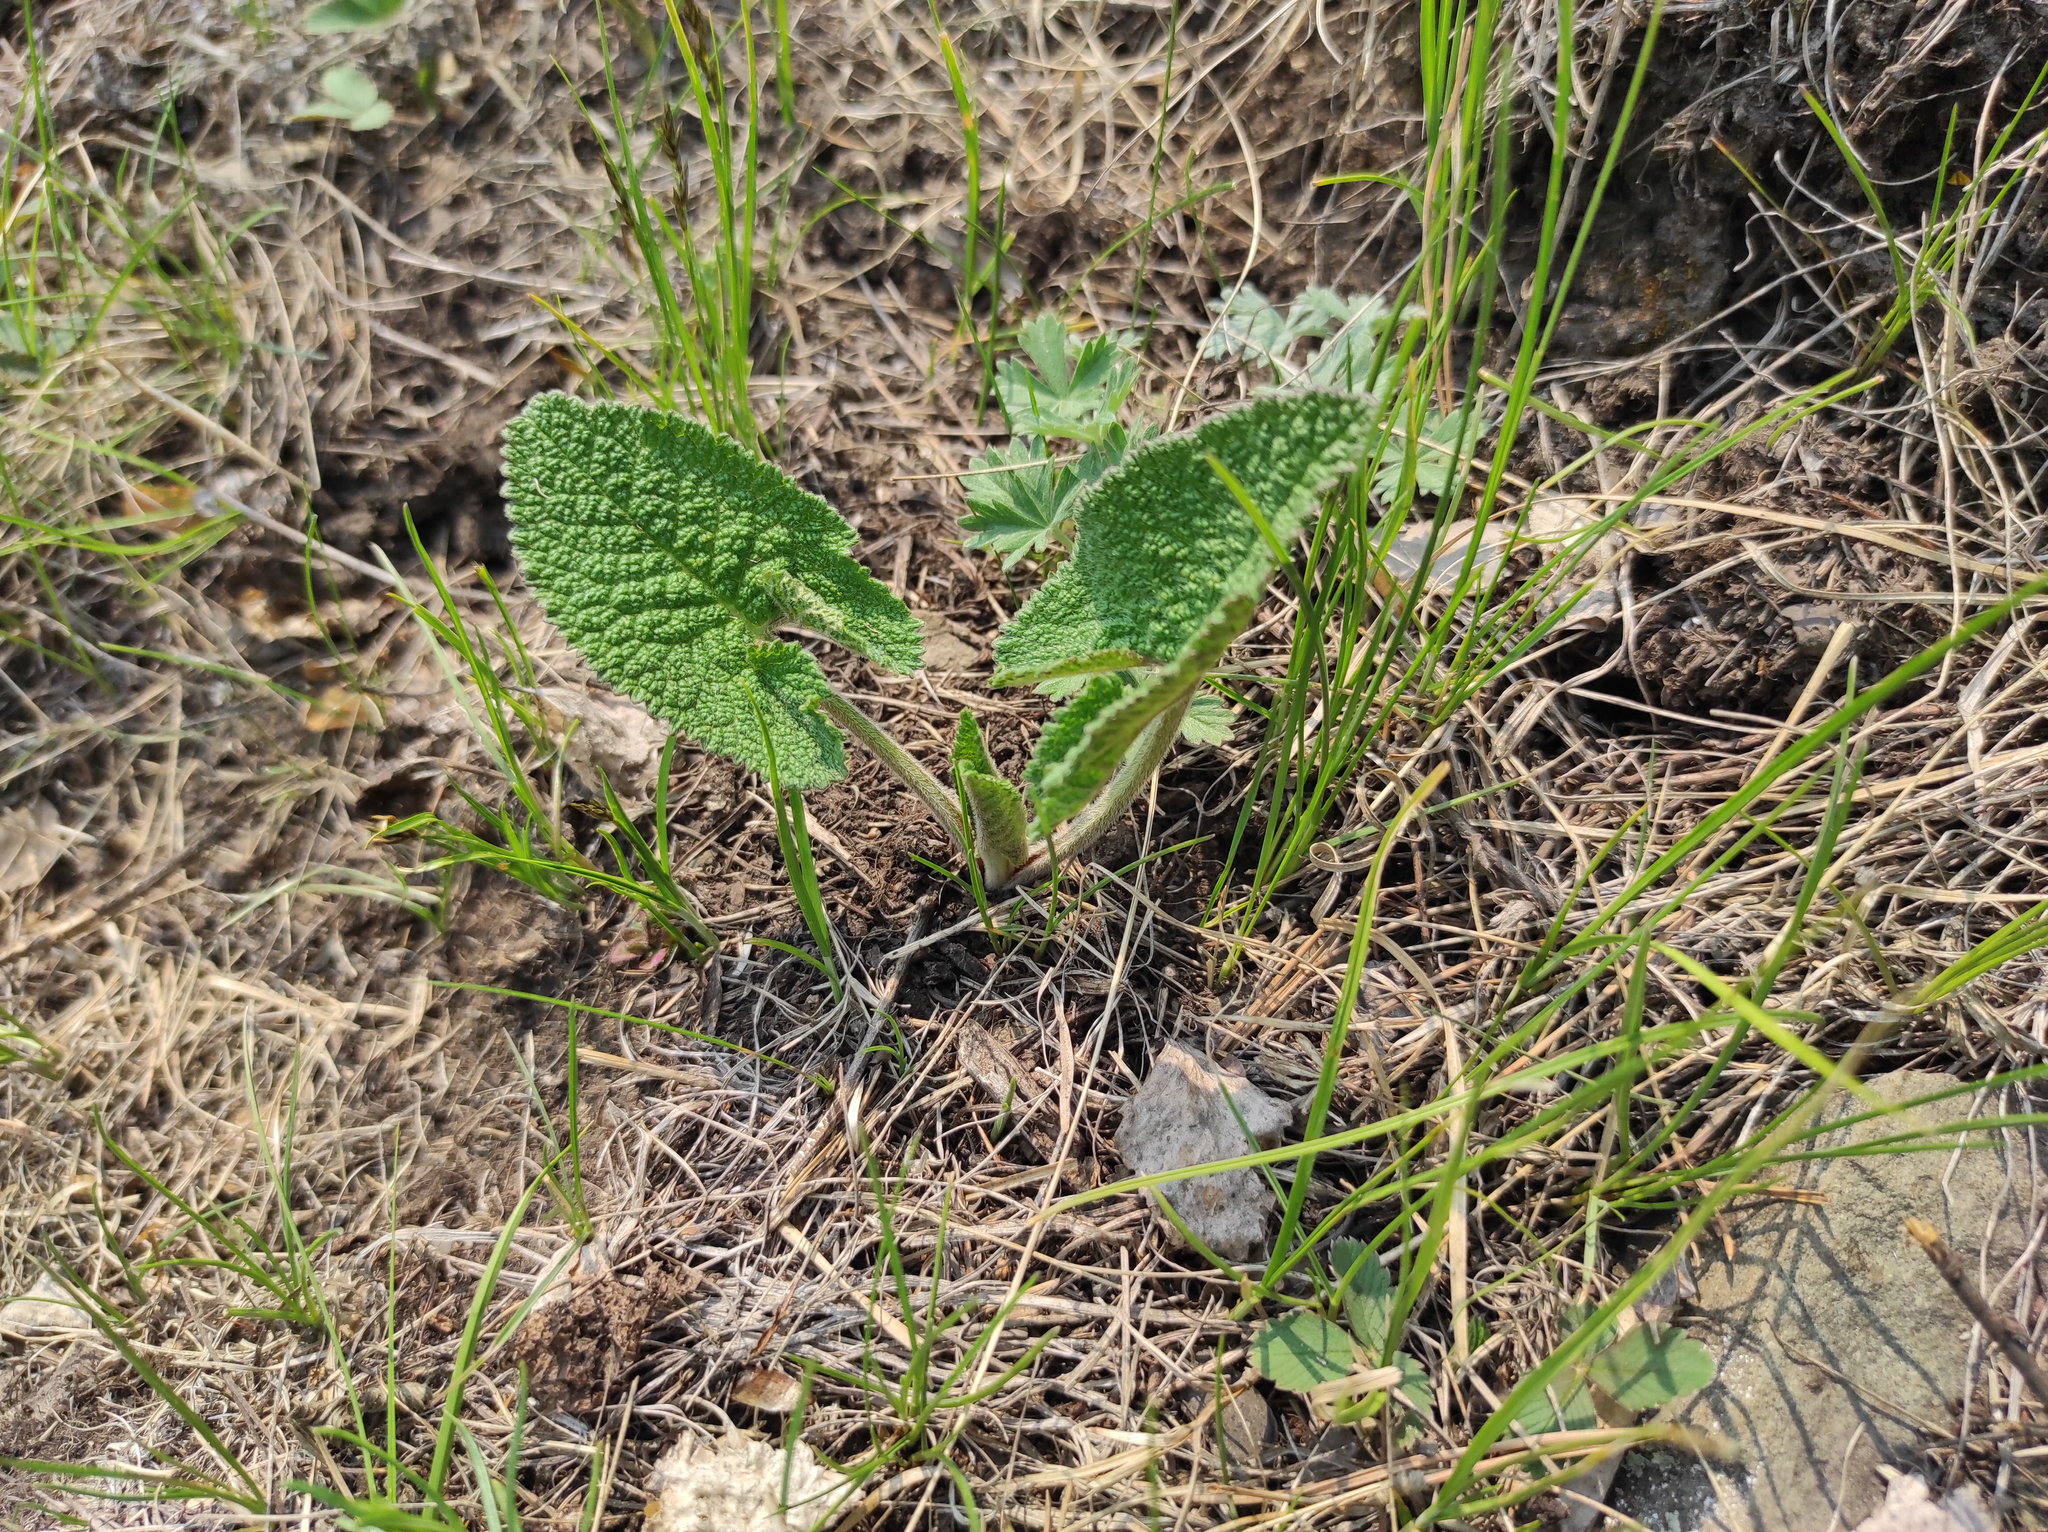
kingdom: Plantae
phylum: Tracheophyta
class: Magnoliopsida
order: Lamiales
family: Lamiaceae
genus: Phlomoides
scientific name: Phlomoides tuberosa
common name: Tuberous jerusalem sage
